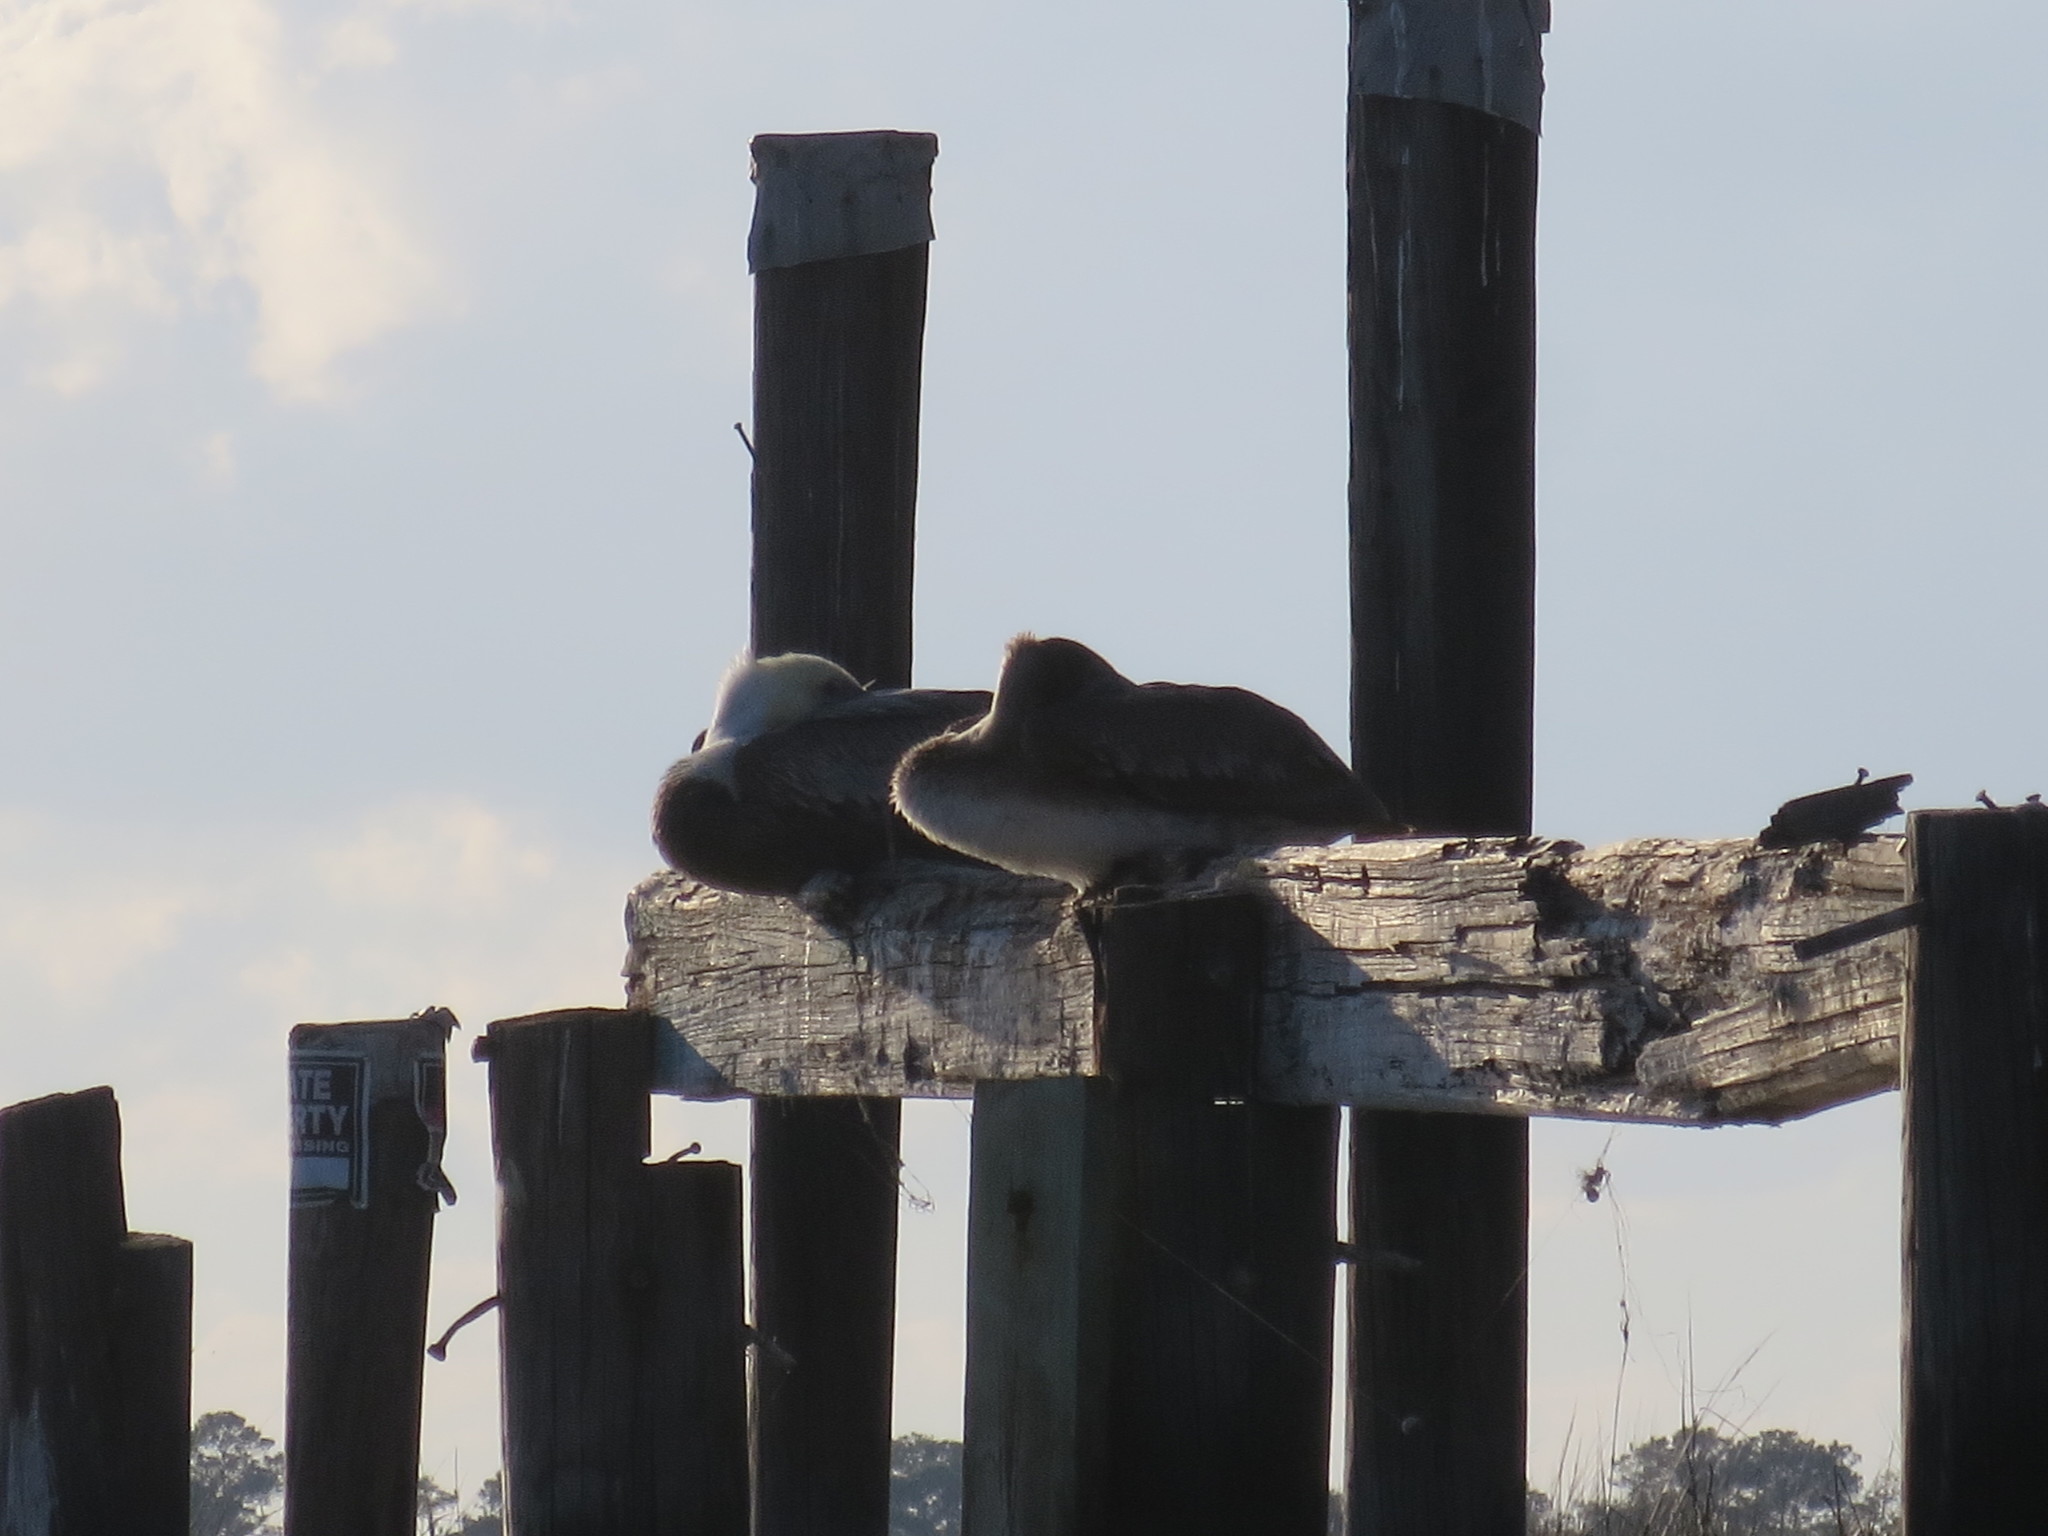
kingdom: Animalia
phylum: Chordata
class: Aves
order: Pelecaniformes
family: Pelecanidae
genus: Pelecanus
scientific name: Pelecanus occidentalis
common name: Brown pelican
